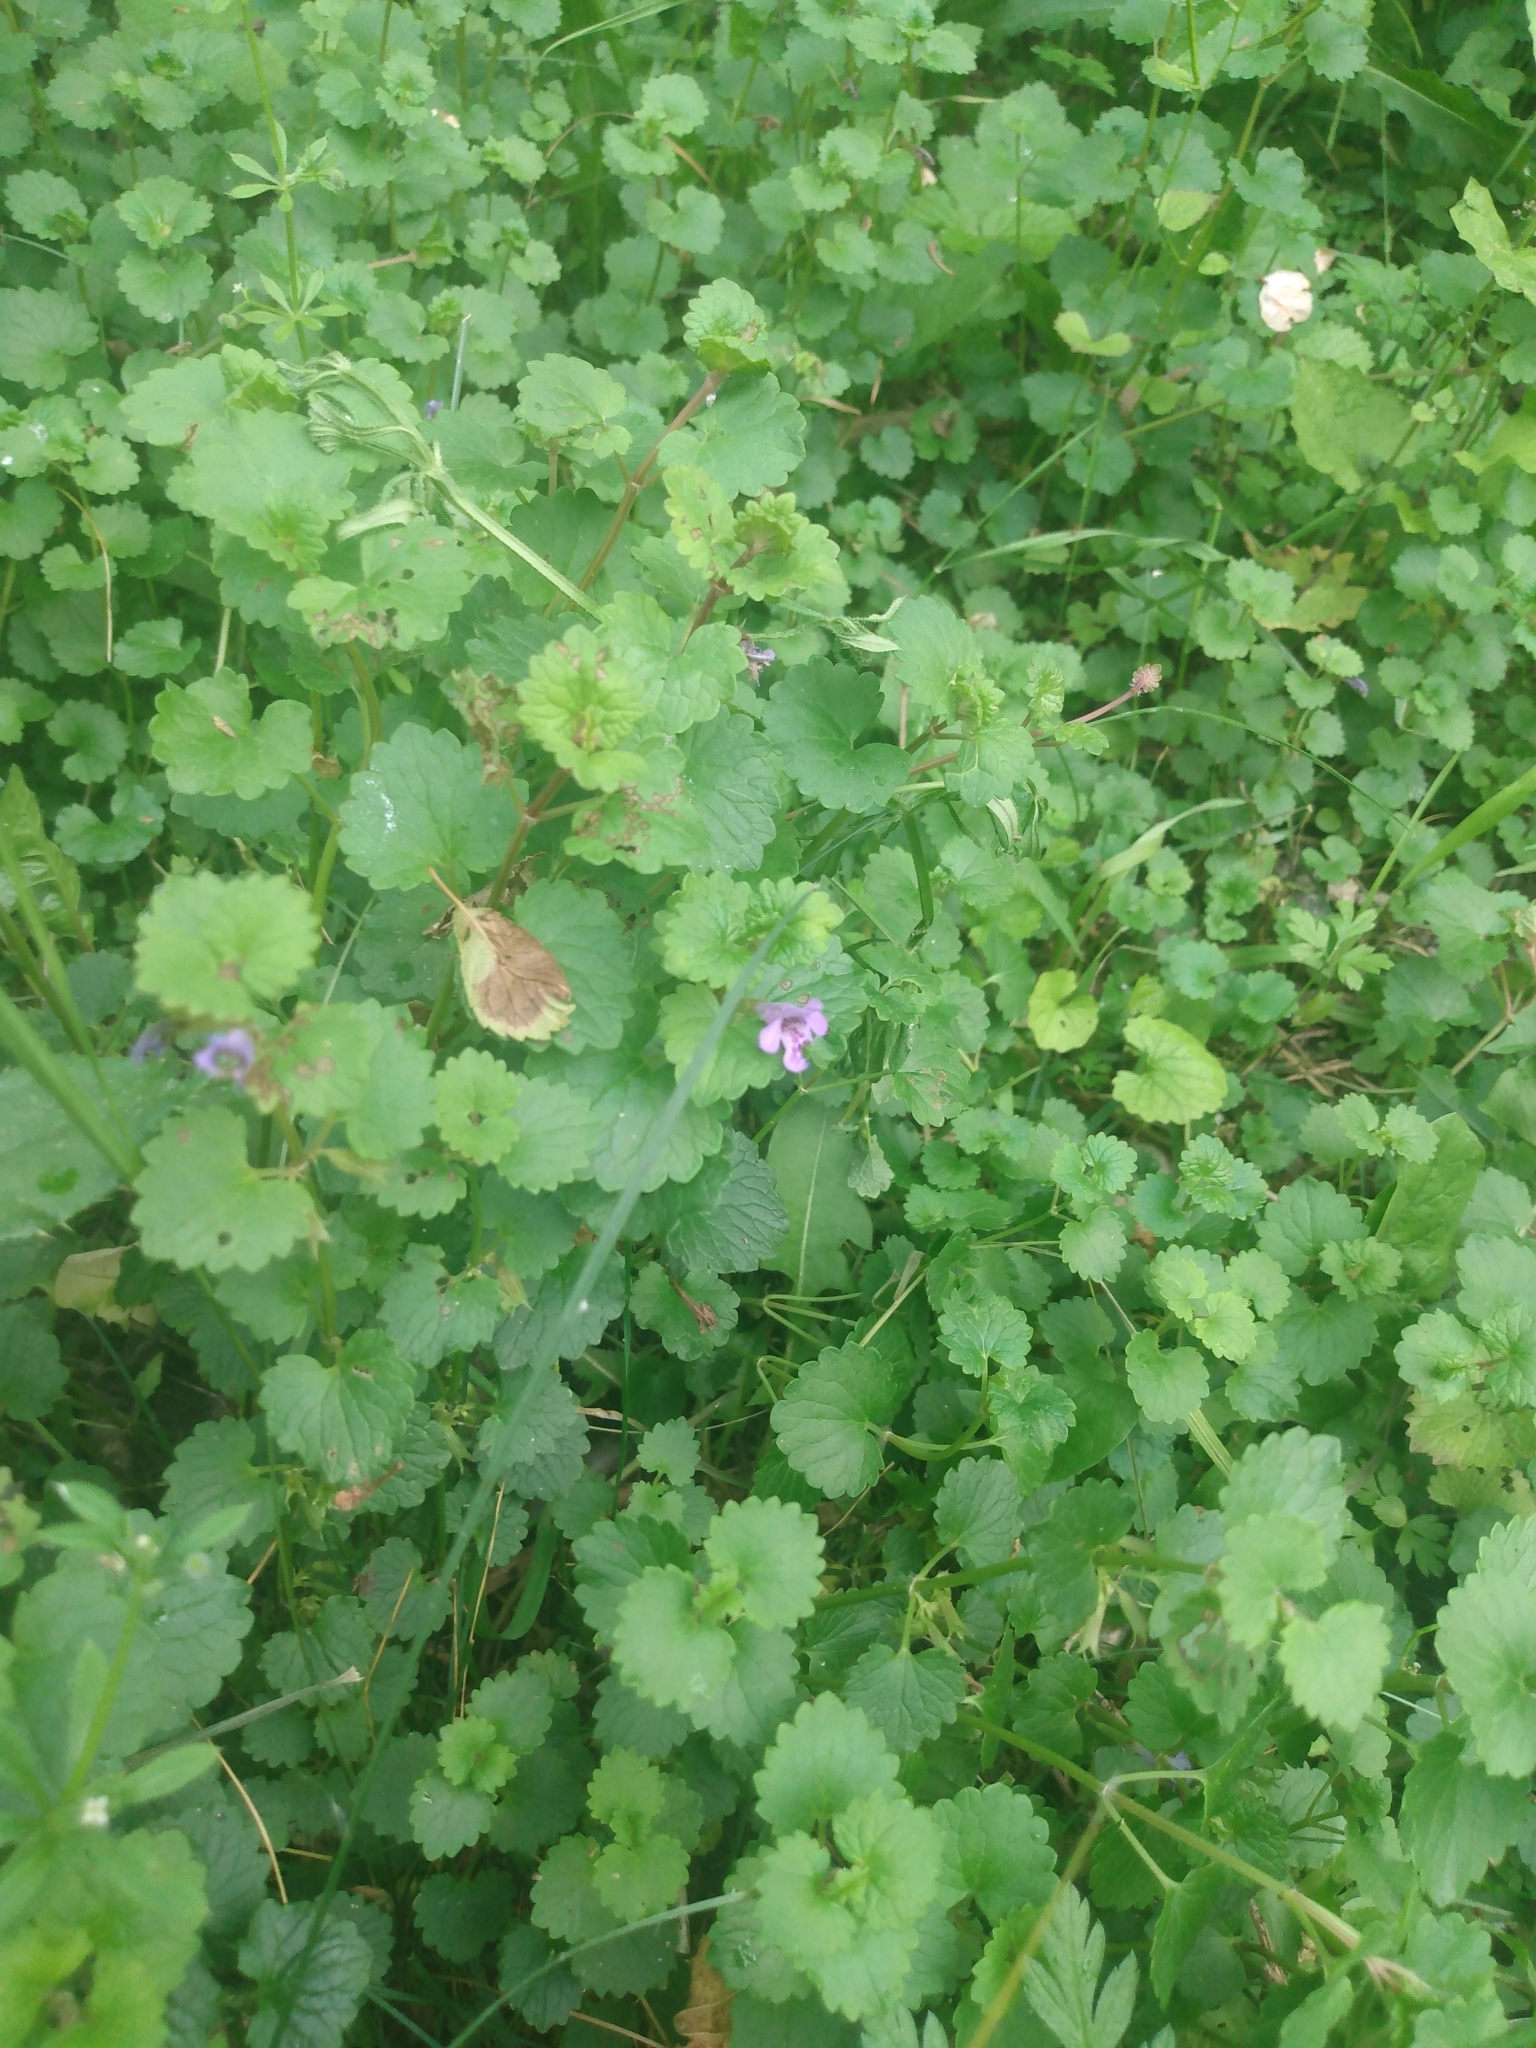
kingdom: Plantae
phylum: Tracheophyta
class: Magnoliopsida
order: Lamiales
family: Lamiaceae
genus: Glechoma
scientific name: Glechoma hederacea
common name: Ground ivy
